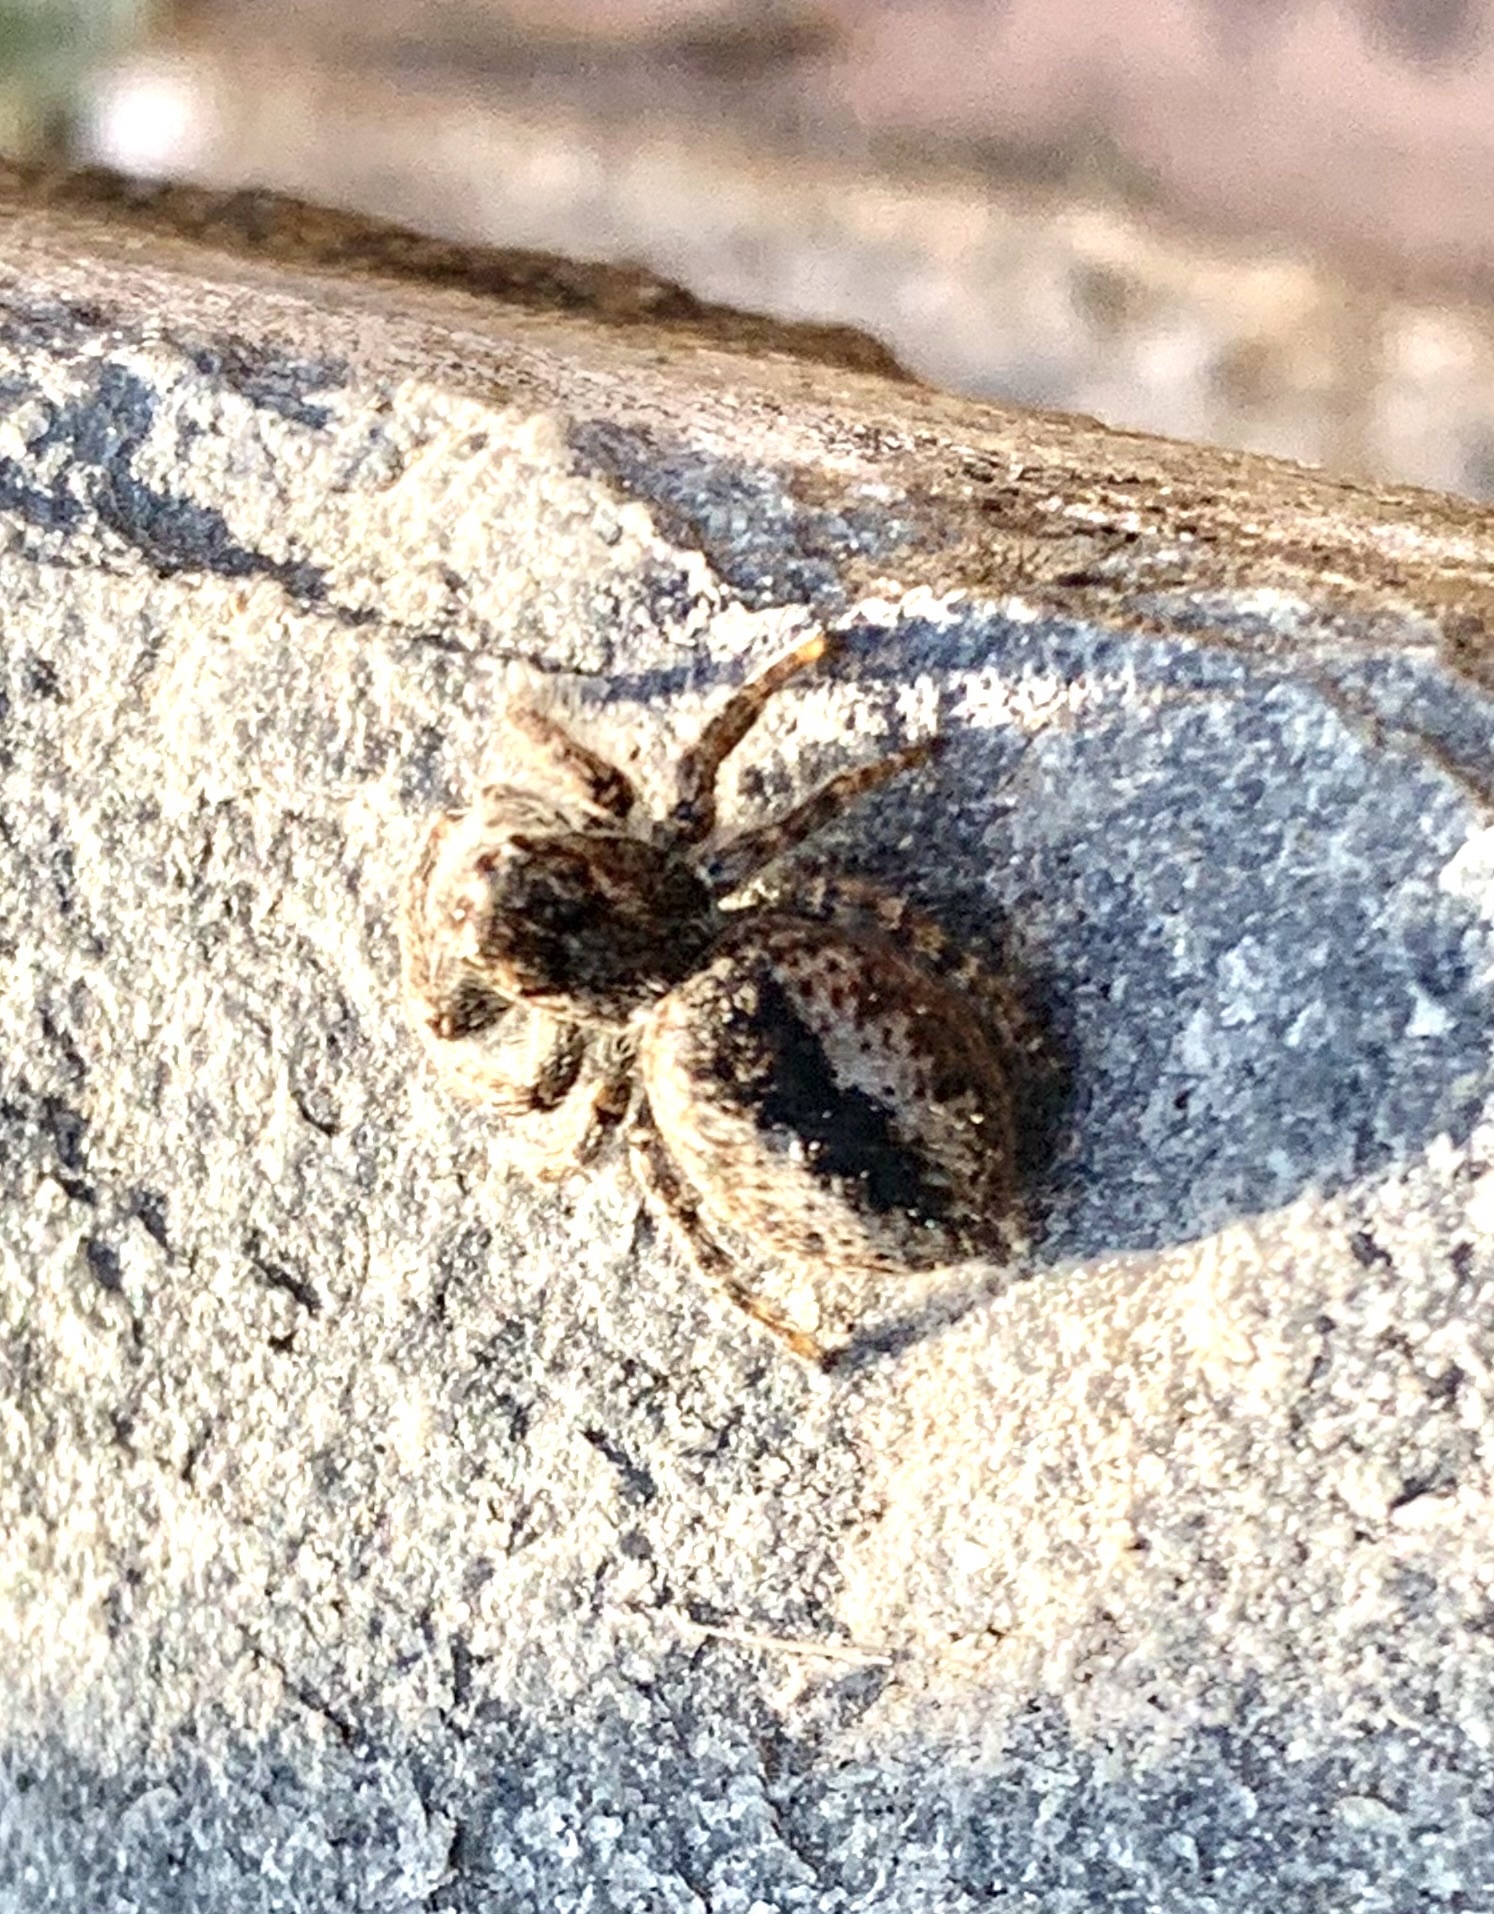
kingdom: Animalia
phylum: Arthropoda
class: Arachnida
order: Araneae
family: Salticidae
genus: Philaeus
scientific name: Philaeus chrysops
